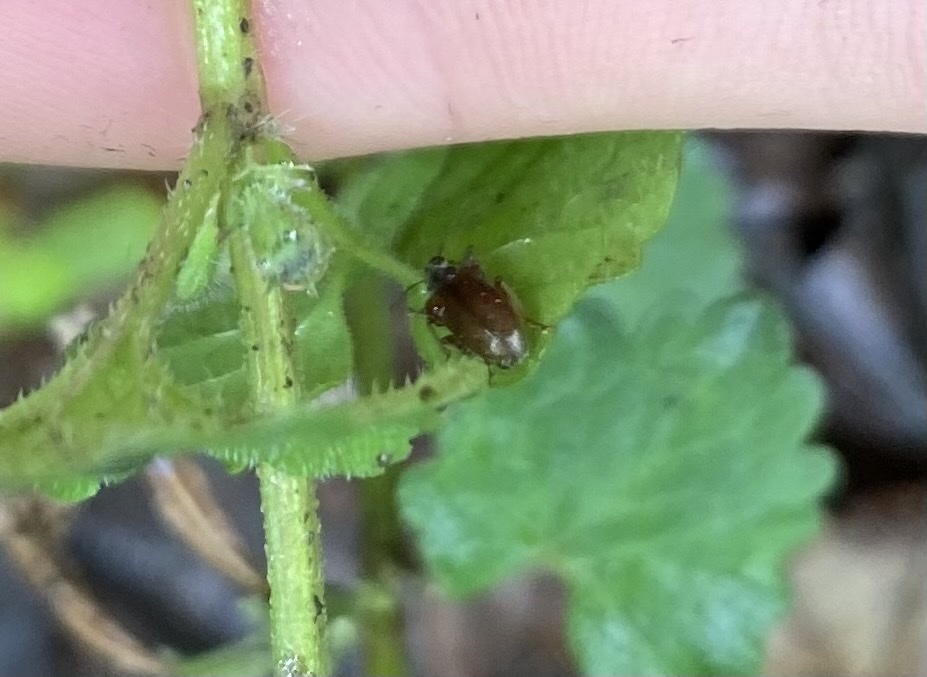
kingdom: Animalia
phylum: Arthropoda
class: Insecta
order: Coleoptera
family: Curculionidae
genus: Phyllobius
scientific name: Phyllobius oblongus
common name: Brown leaf weevil
